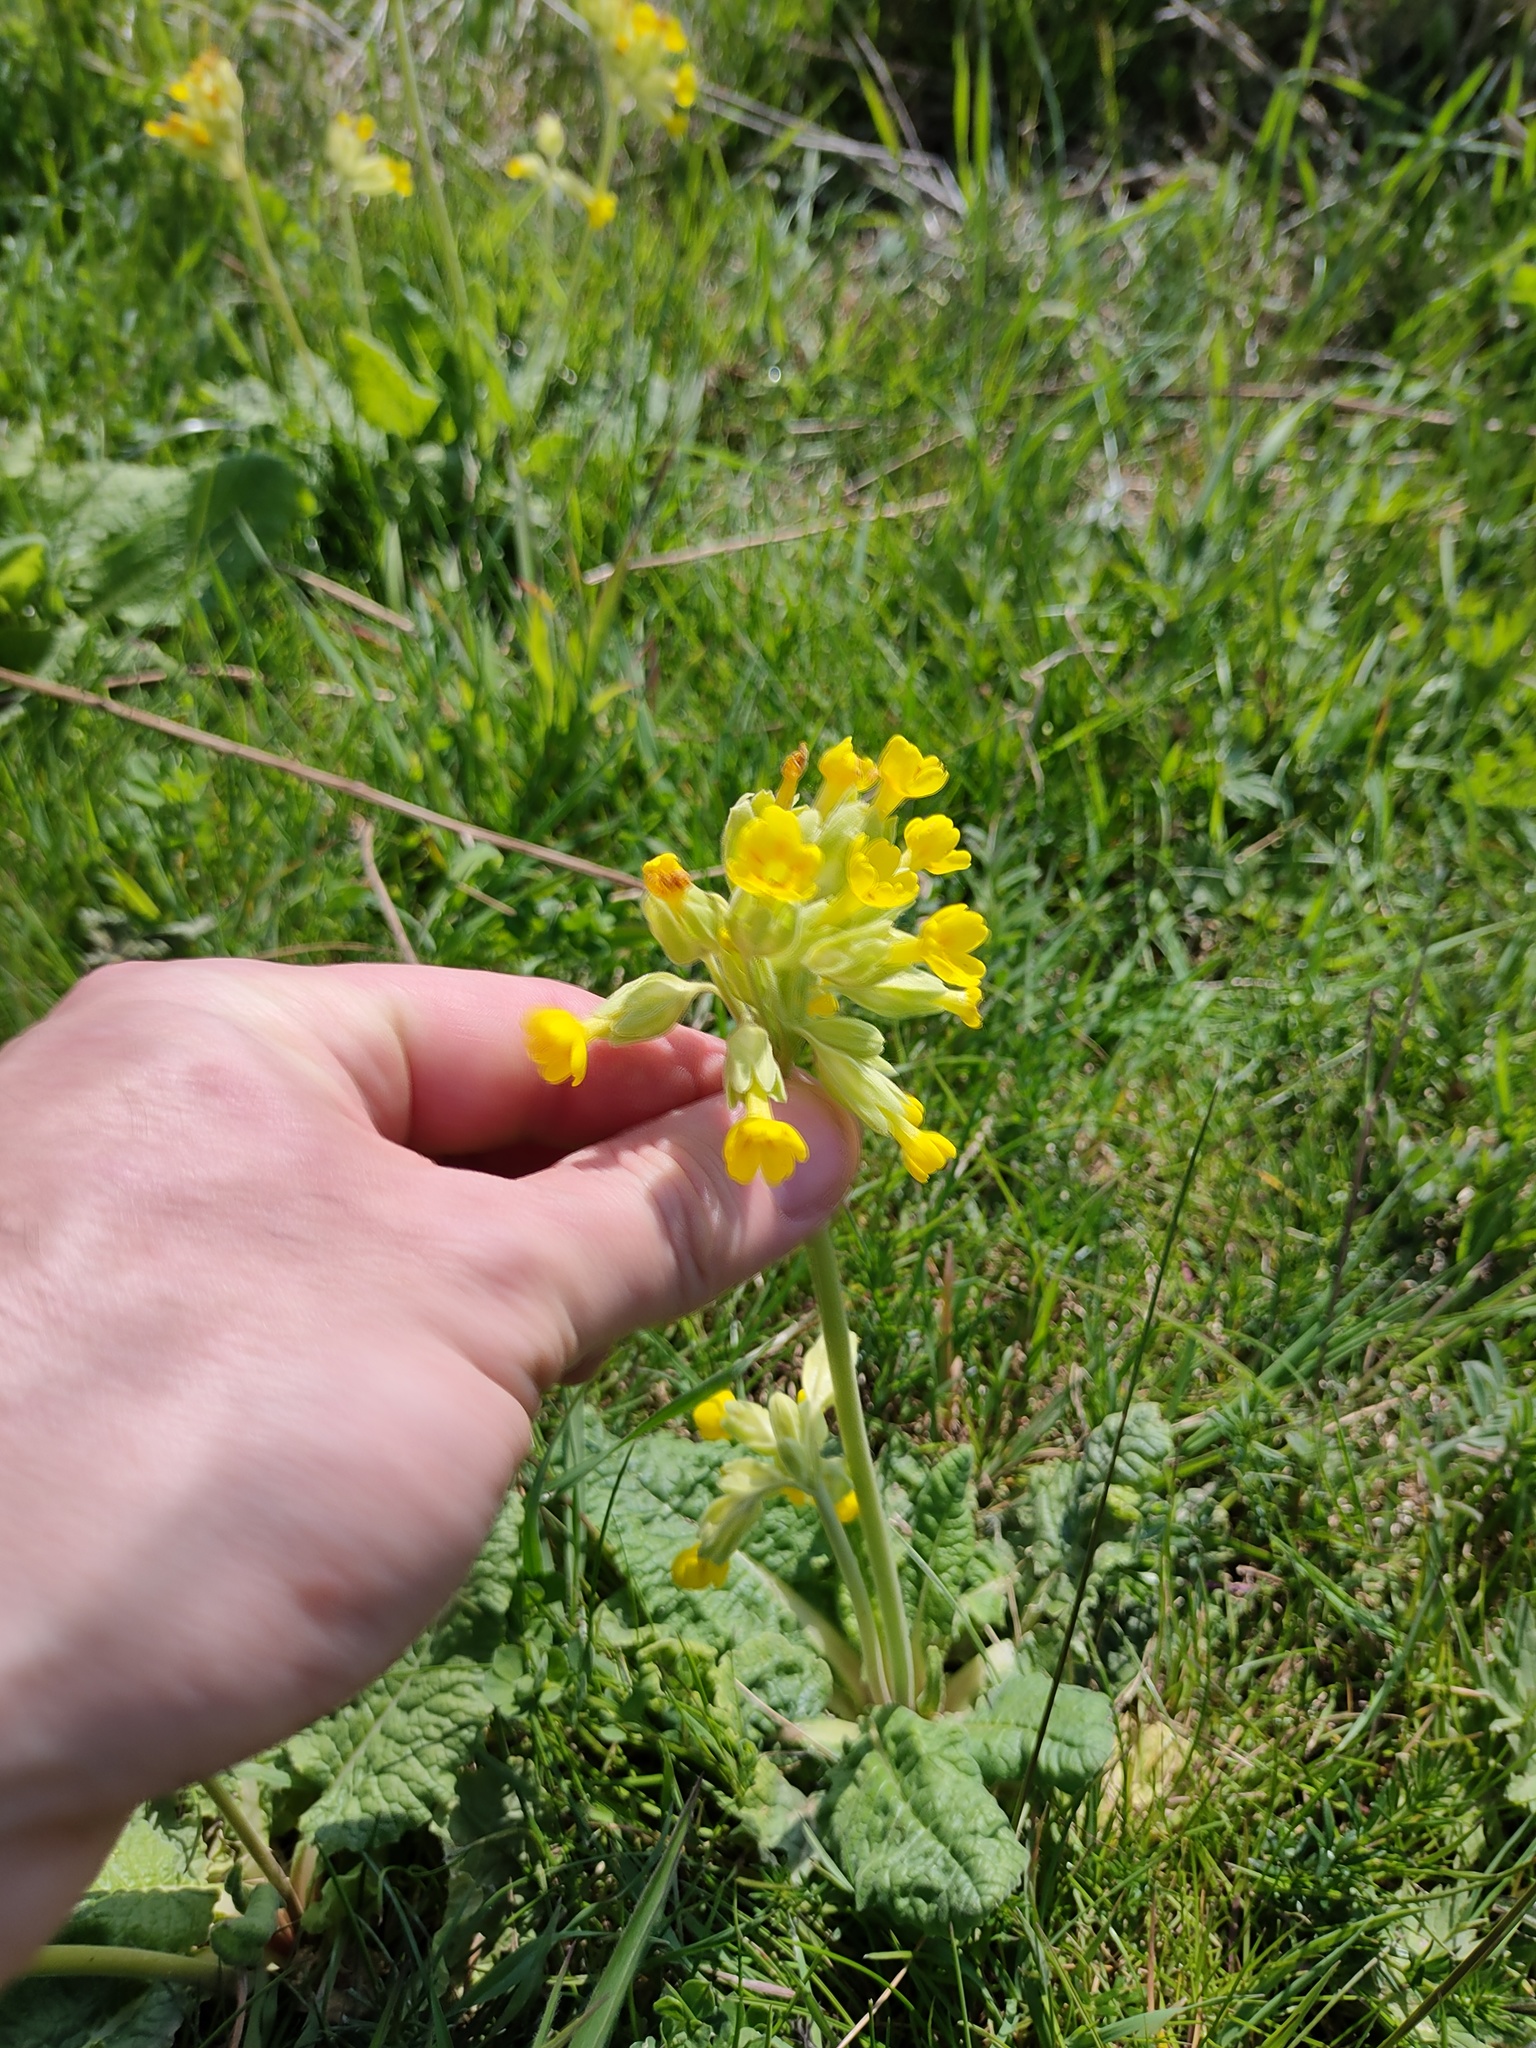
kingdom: Plantae
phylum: Tracheophyta
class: Magnoliopsida
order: Ericales
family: Primulaceae
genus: Primula
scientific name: Primula veris
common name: Cowslip
